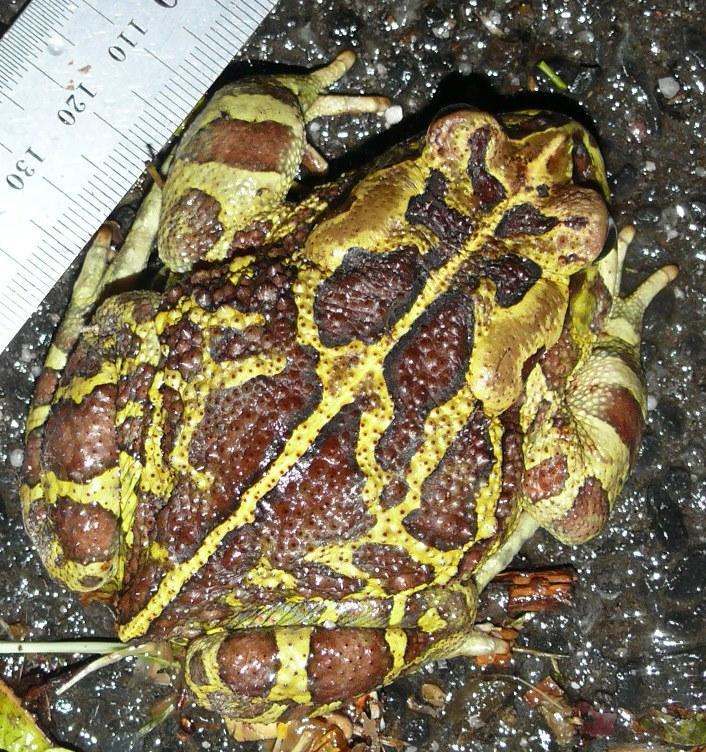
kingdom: Animalia
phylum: Chordata
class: Amphibia
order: Anura
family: Bufonidae
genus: Sclerophrys
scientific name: Sclerophrys pantherina
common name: Panther toad
